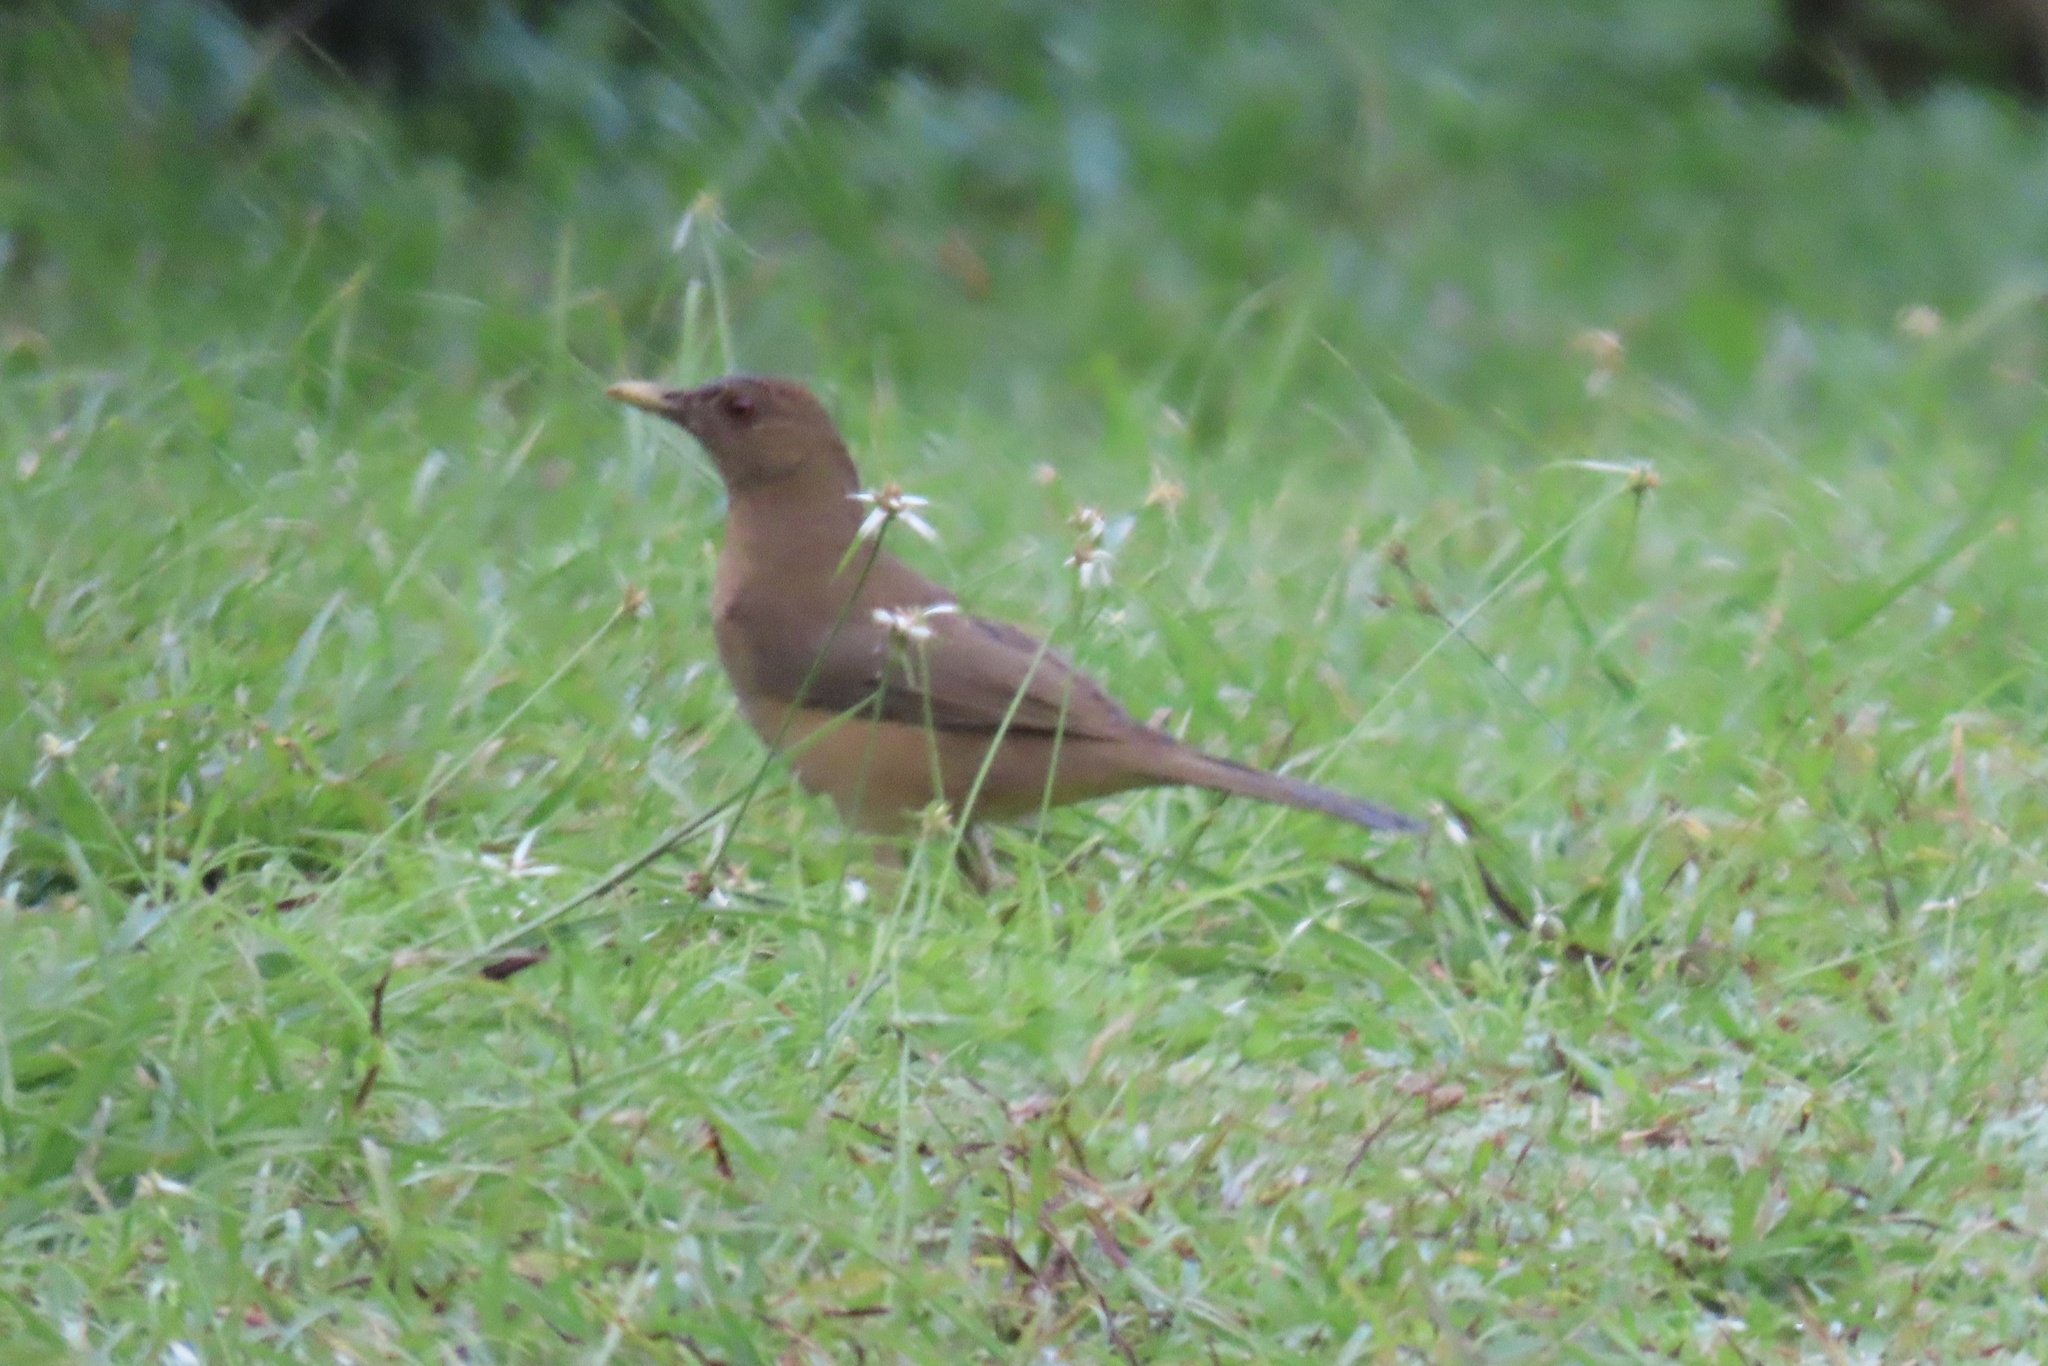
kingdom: Animalia
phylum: Chordata
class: Aves
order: Passeriformes
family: Turdidae
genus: Turdus
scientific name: Turdus grayi
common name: Clay-colored thrush
